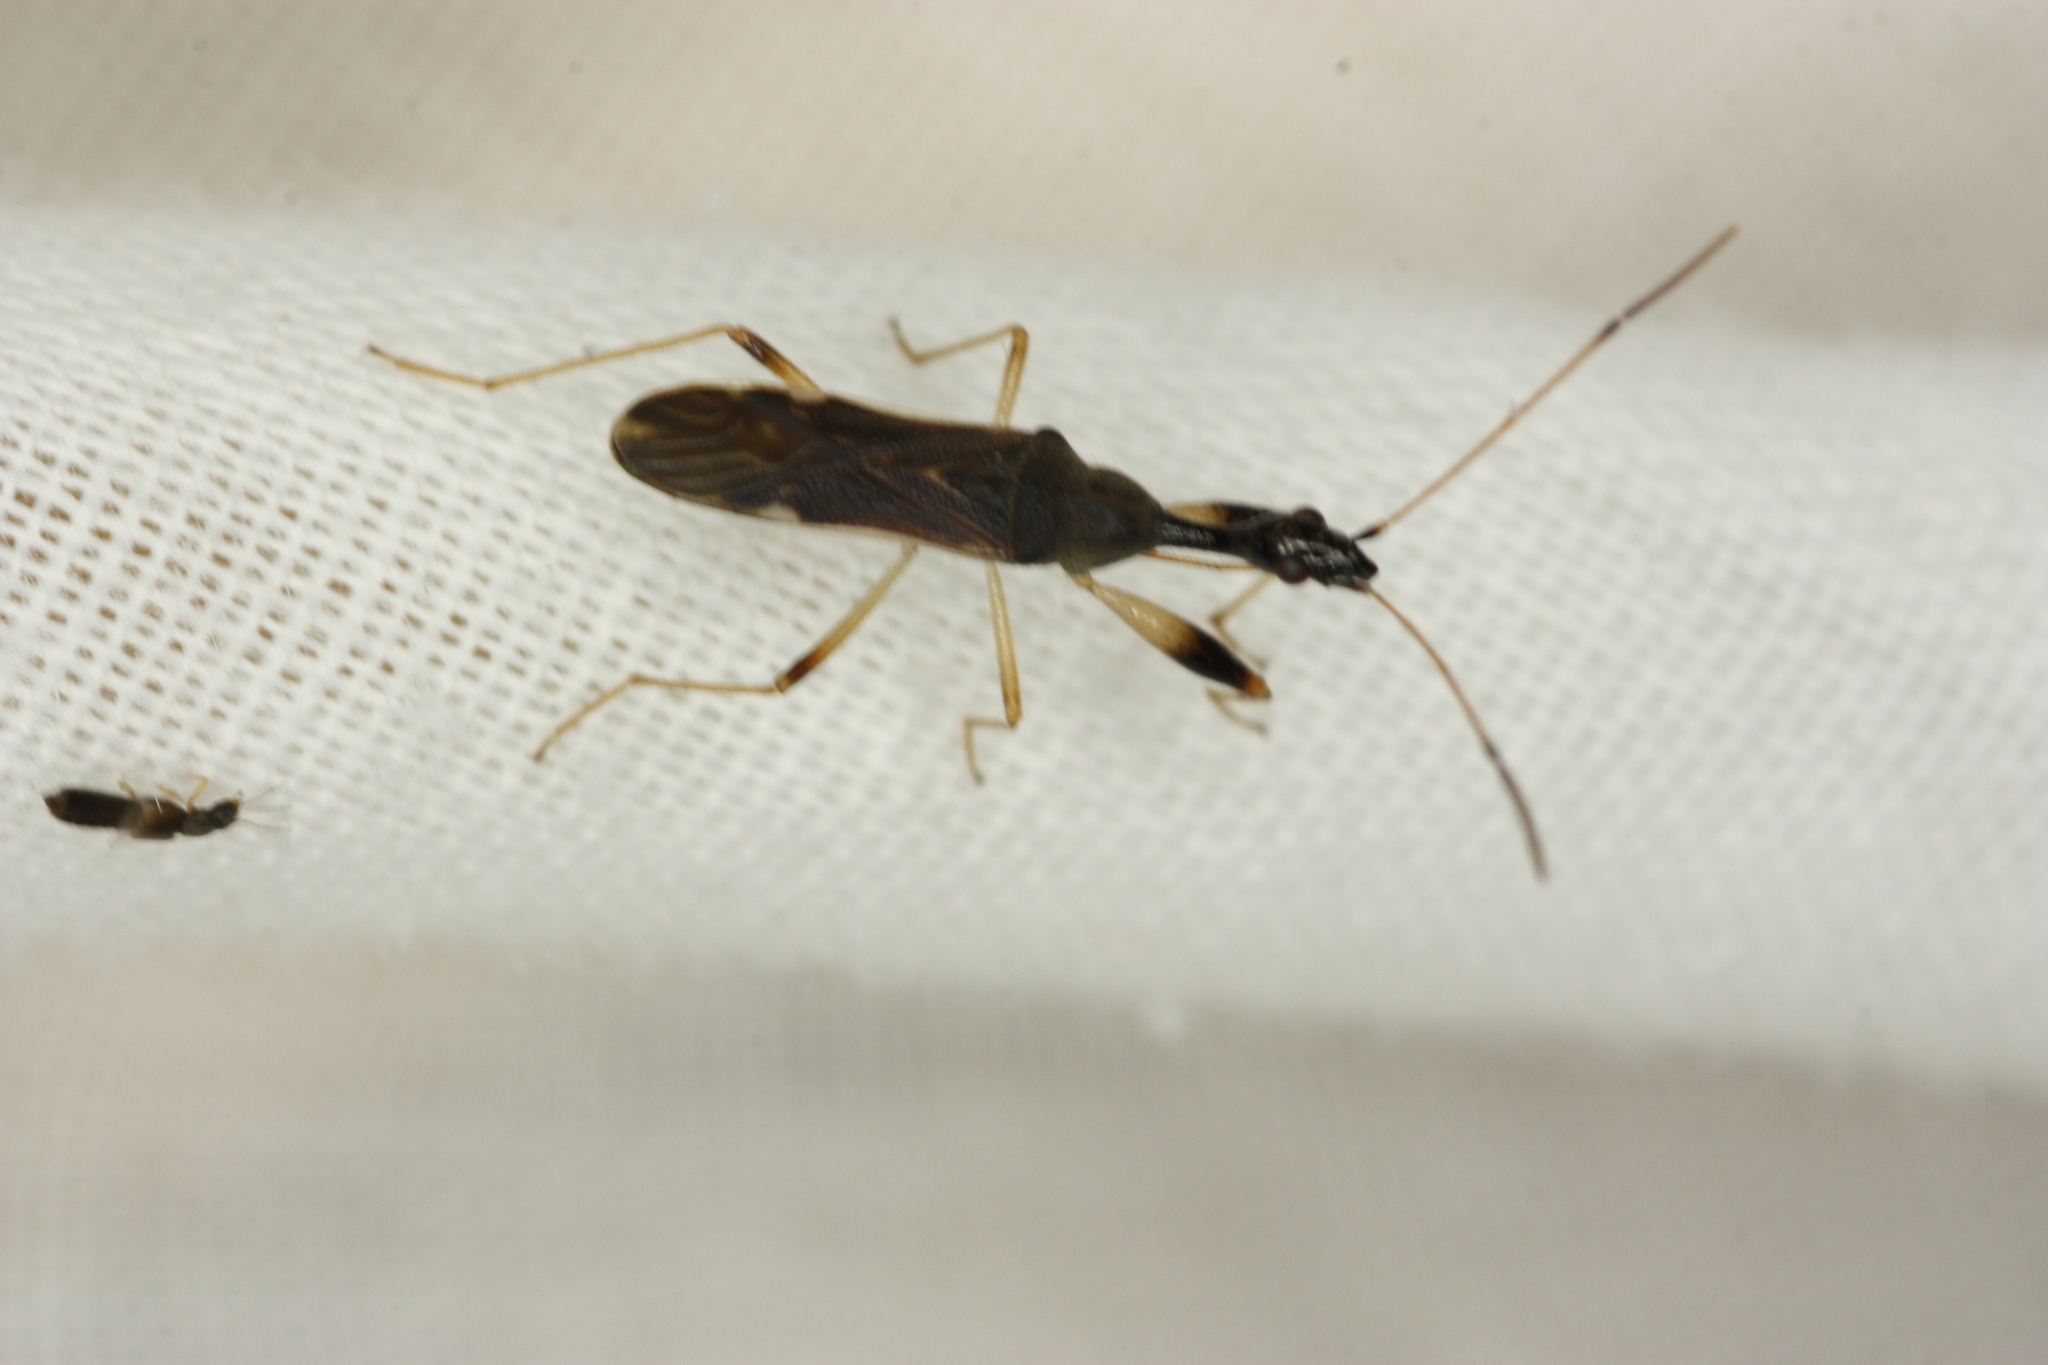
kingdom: Animalia
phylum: Arthropoda
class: Insecta
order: Hemiptera
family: Rhyparochromidae
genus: Myodocha
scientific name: Myodocha serripes
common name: Long-necked seed bug
